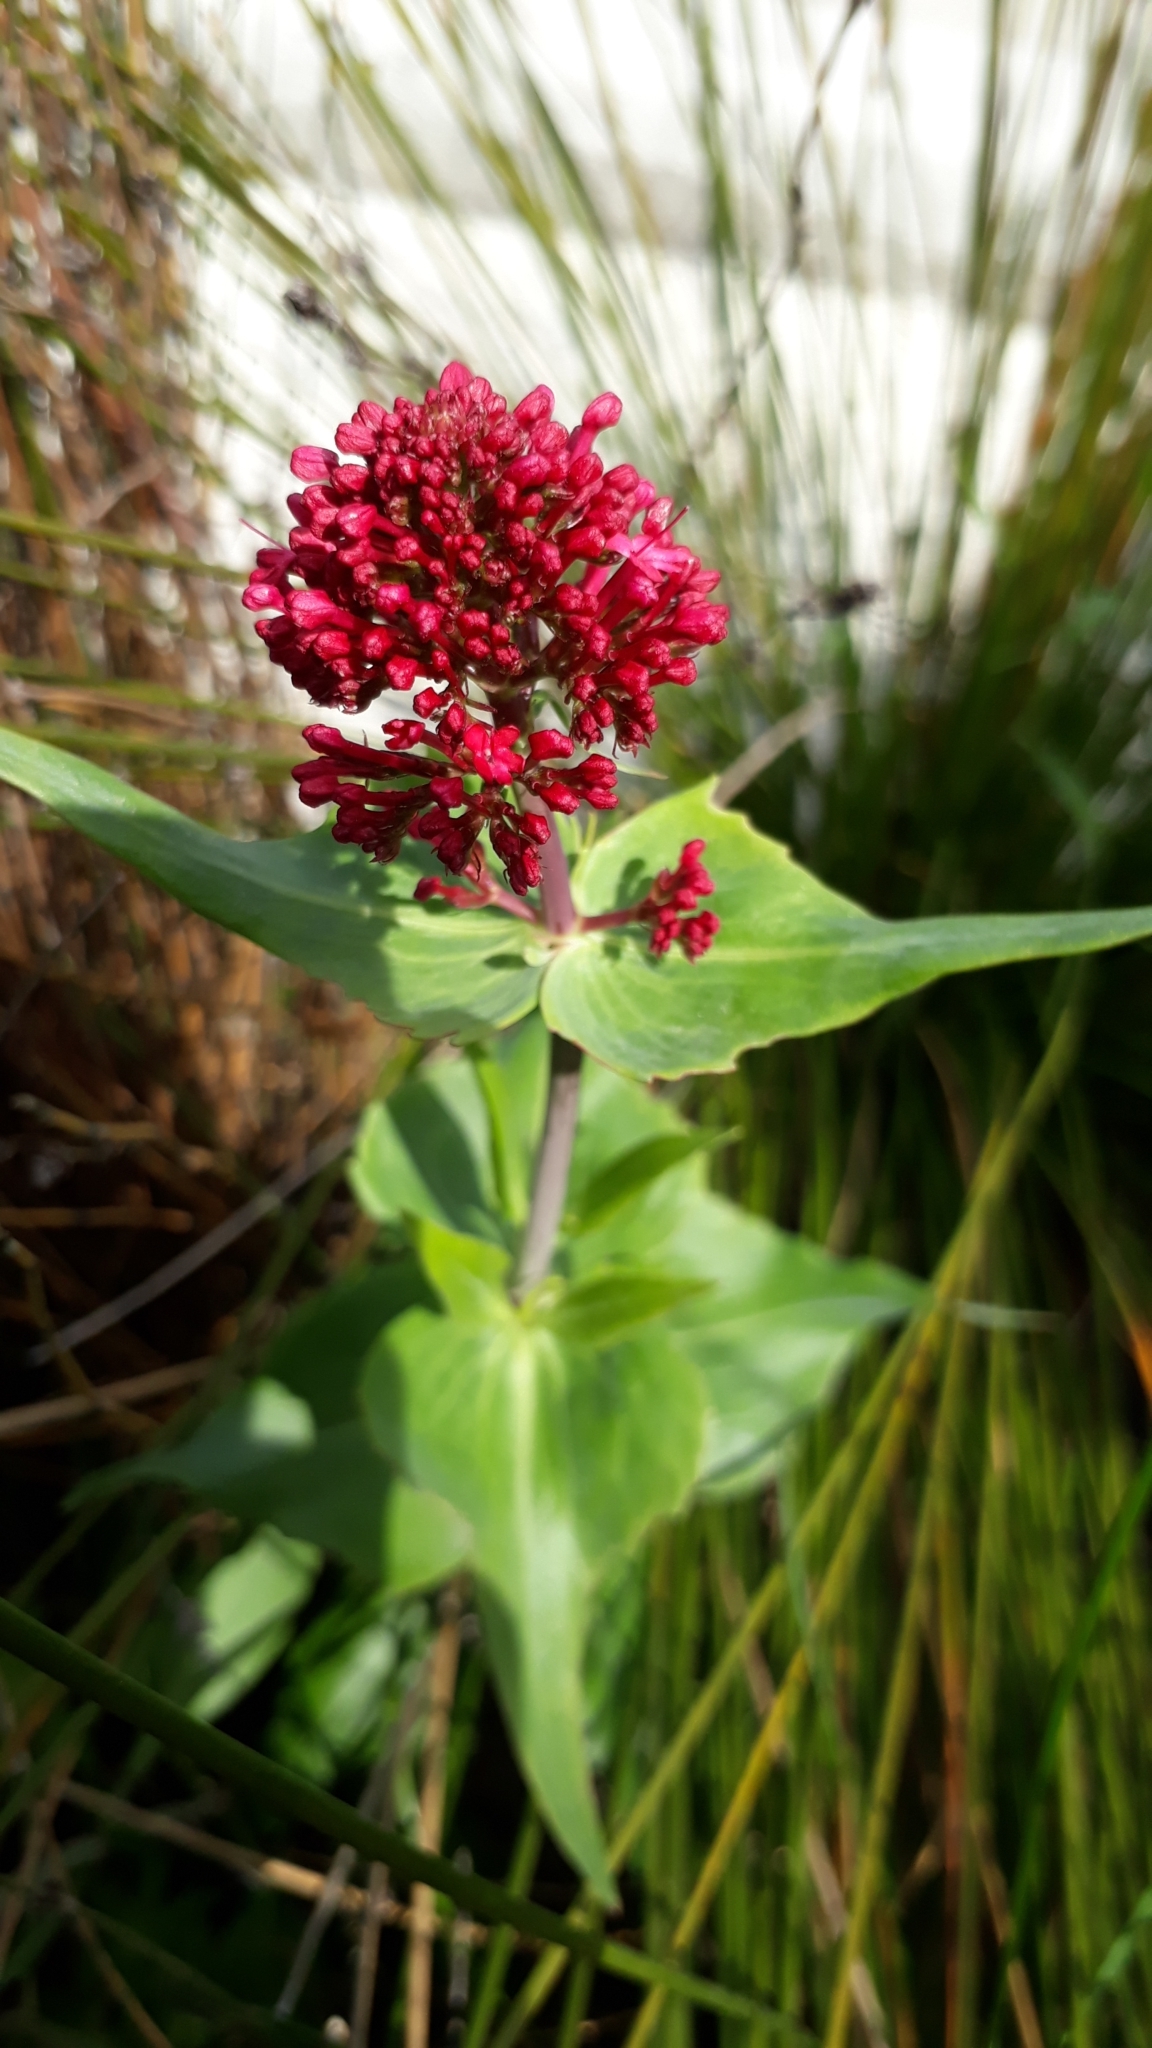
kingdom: Plantae
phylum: Tracheophyta
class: Magnoliopsida
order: Dipsacales
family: Caprifoliaceae
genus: Centranthus
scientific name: Centranthus ruber
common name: Red valerian
